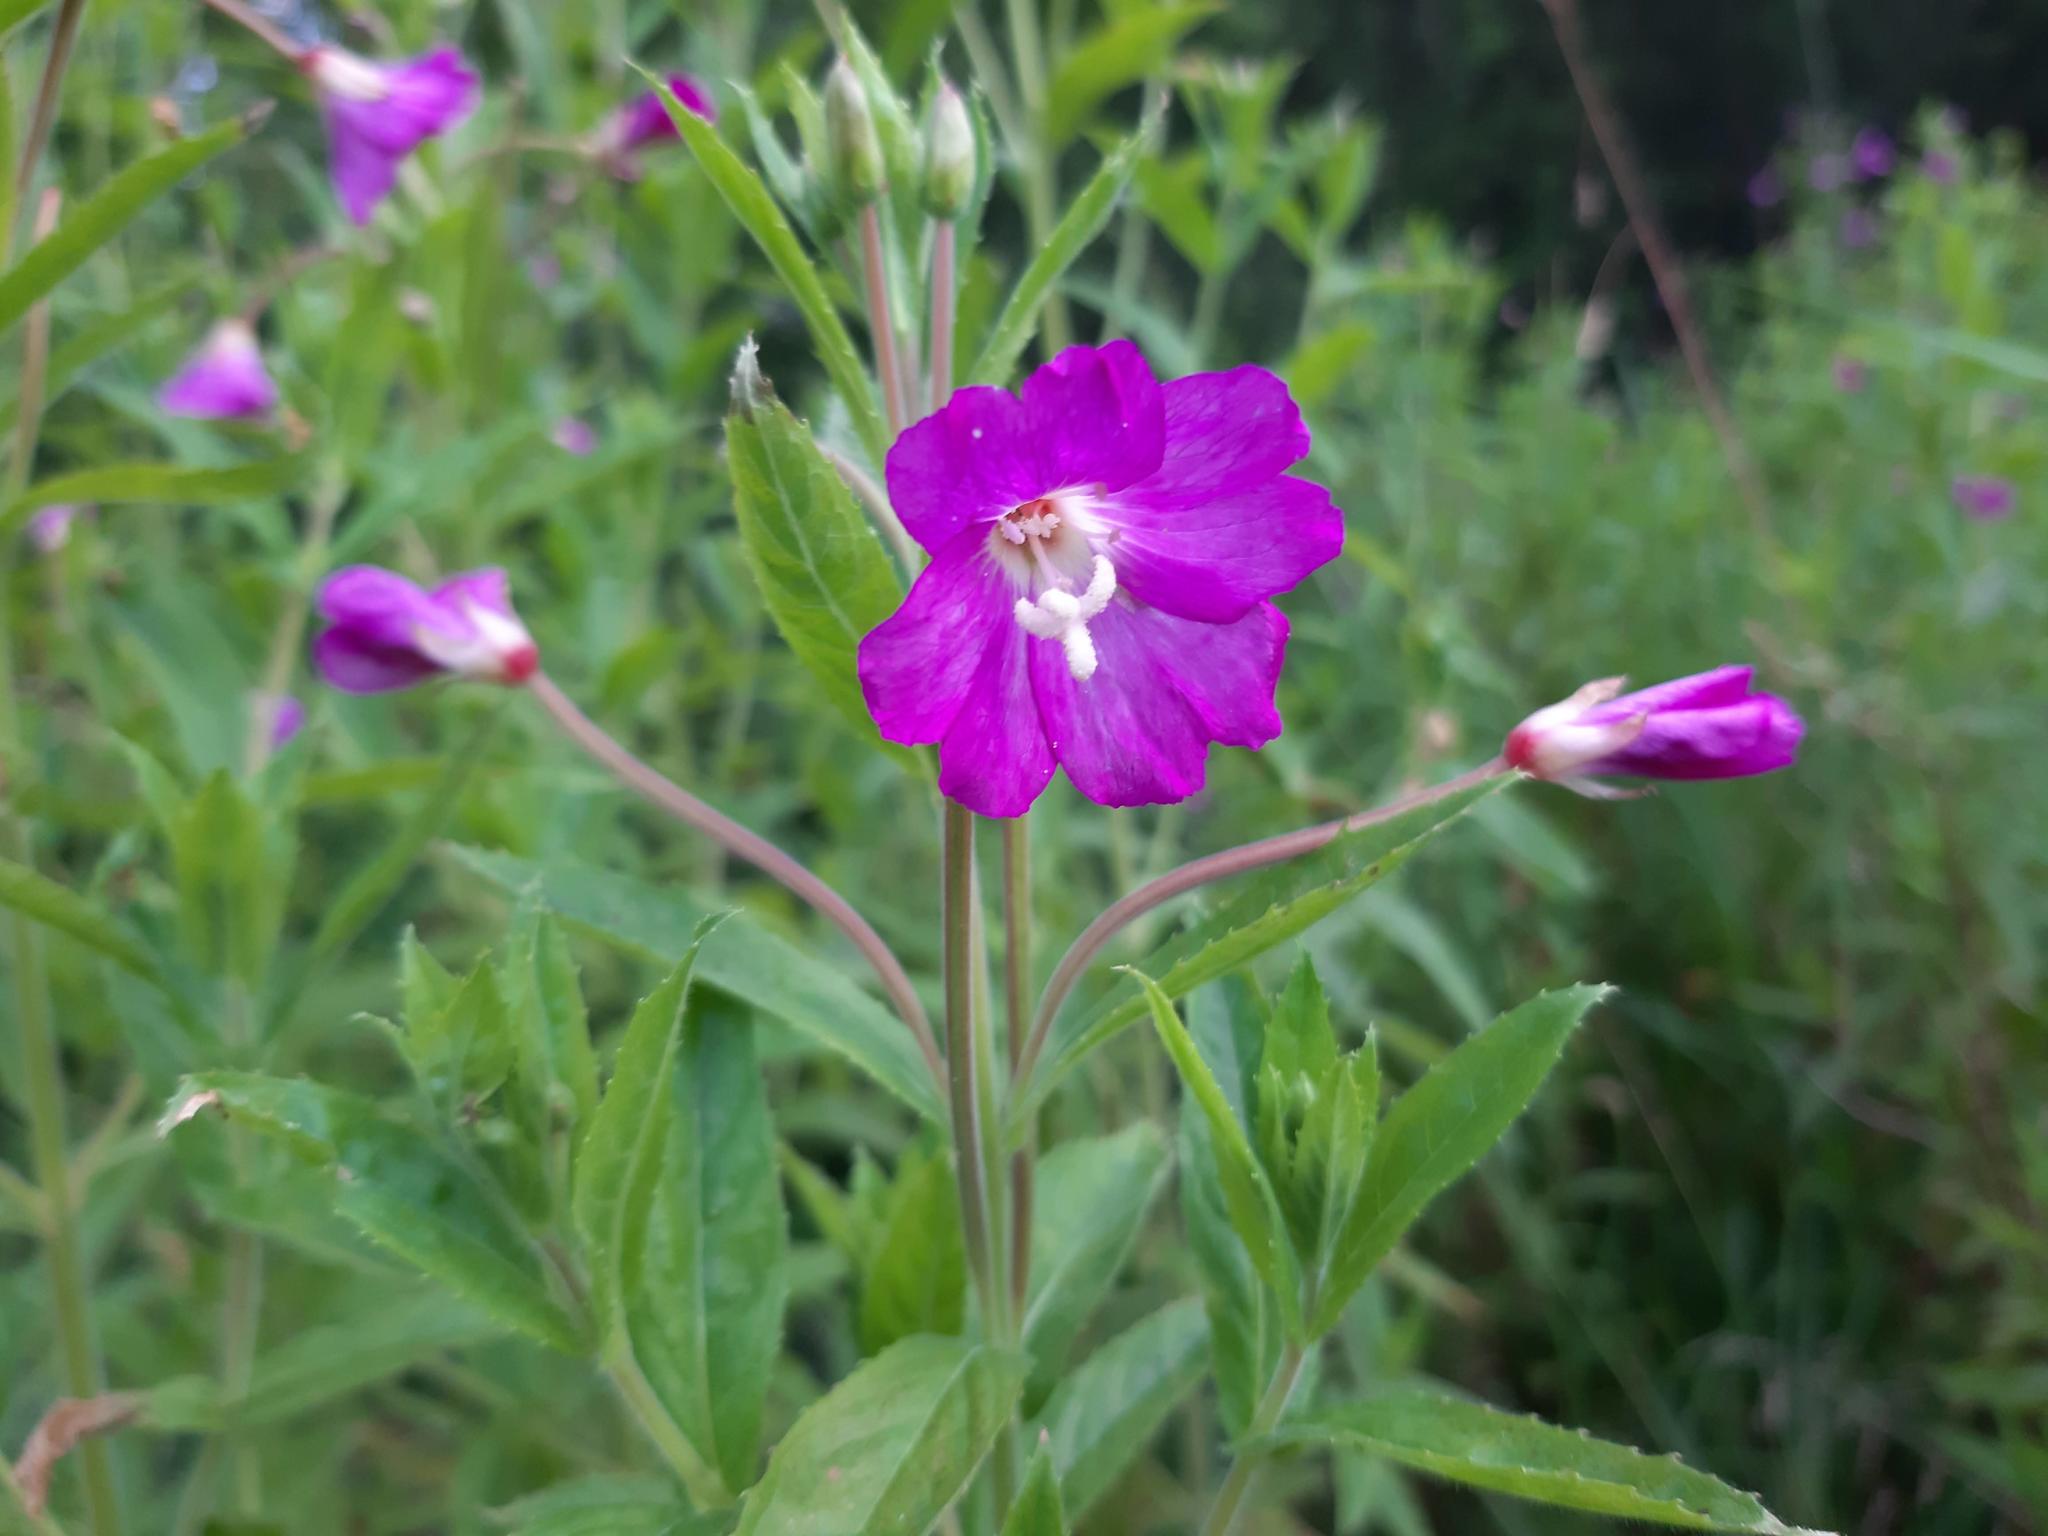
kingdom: Plantae
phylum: Tracheophyta
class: Magnoliopsida
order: Myrtales
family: Onagraceae
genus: Epilobium
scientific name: Epilobium hirsutum
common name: Great willowherb
